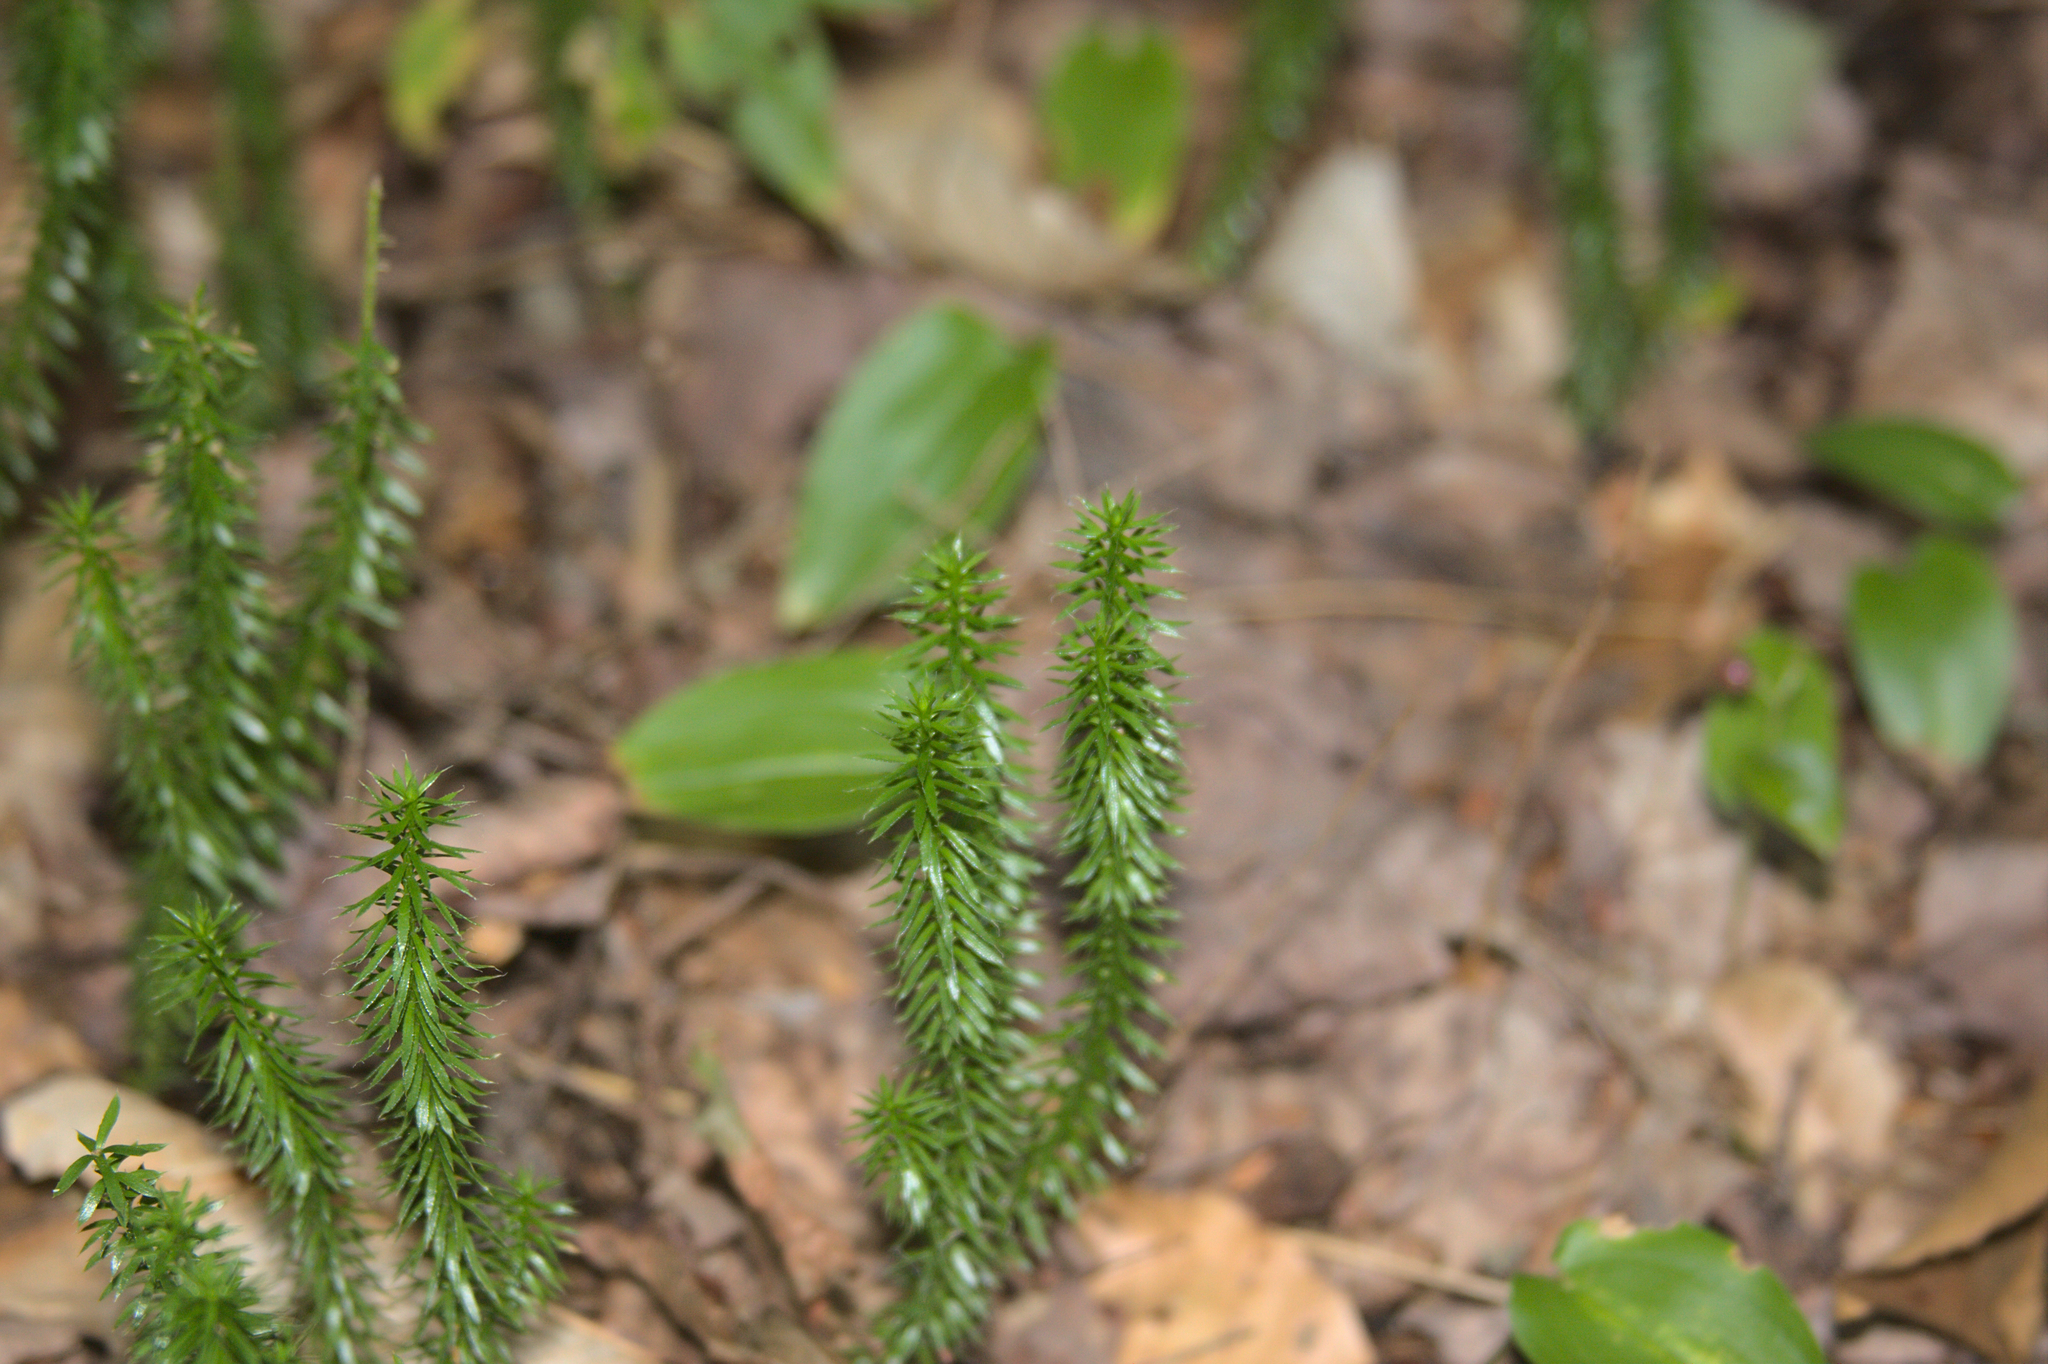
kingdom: Plantae
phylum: Tracheophyta
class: Lycopodiopsida
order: Lycopodiales
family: Lycopodiaceae
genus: Spinulum
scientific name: Spinulum annotinum
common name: Interrupted club-moss
